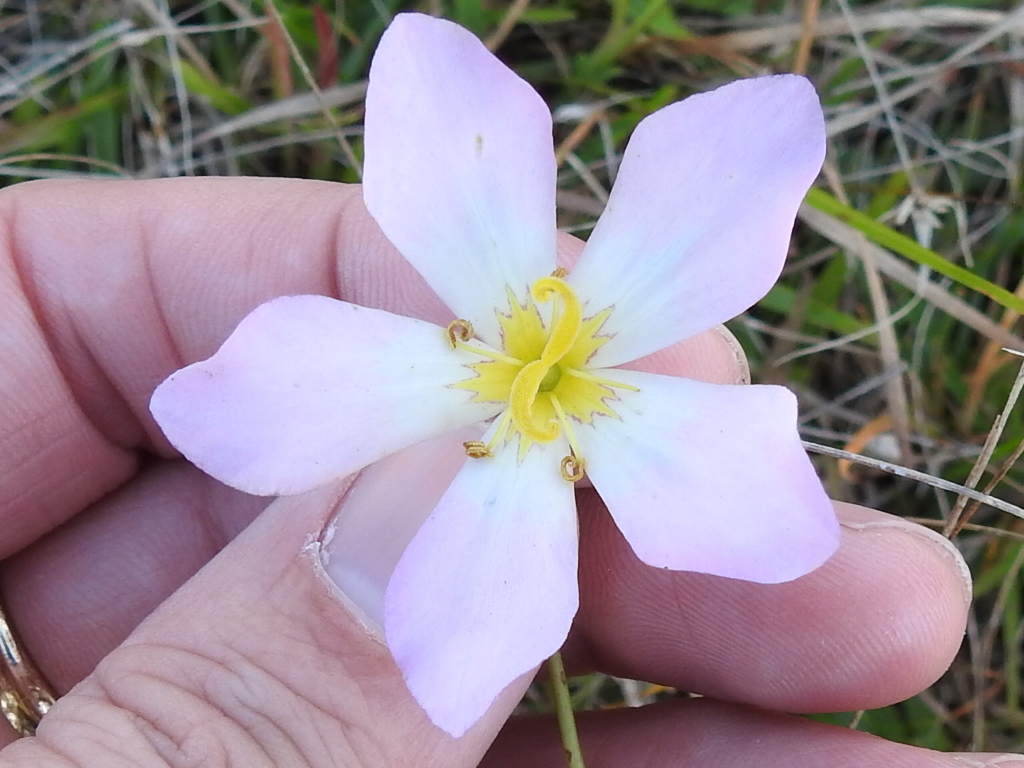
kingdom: Plantae
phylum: Tracheophyta
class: Magnoliopsida
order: Gentianales
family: Gentianaceae
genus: Sabatia
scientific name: Sabatia stellaris
